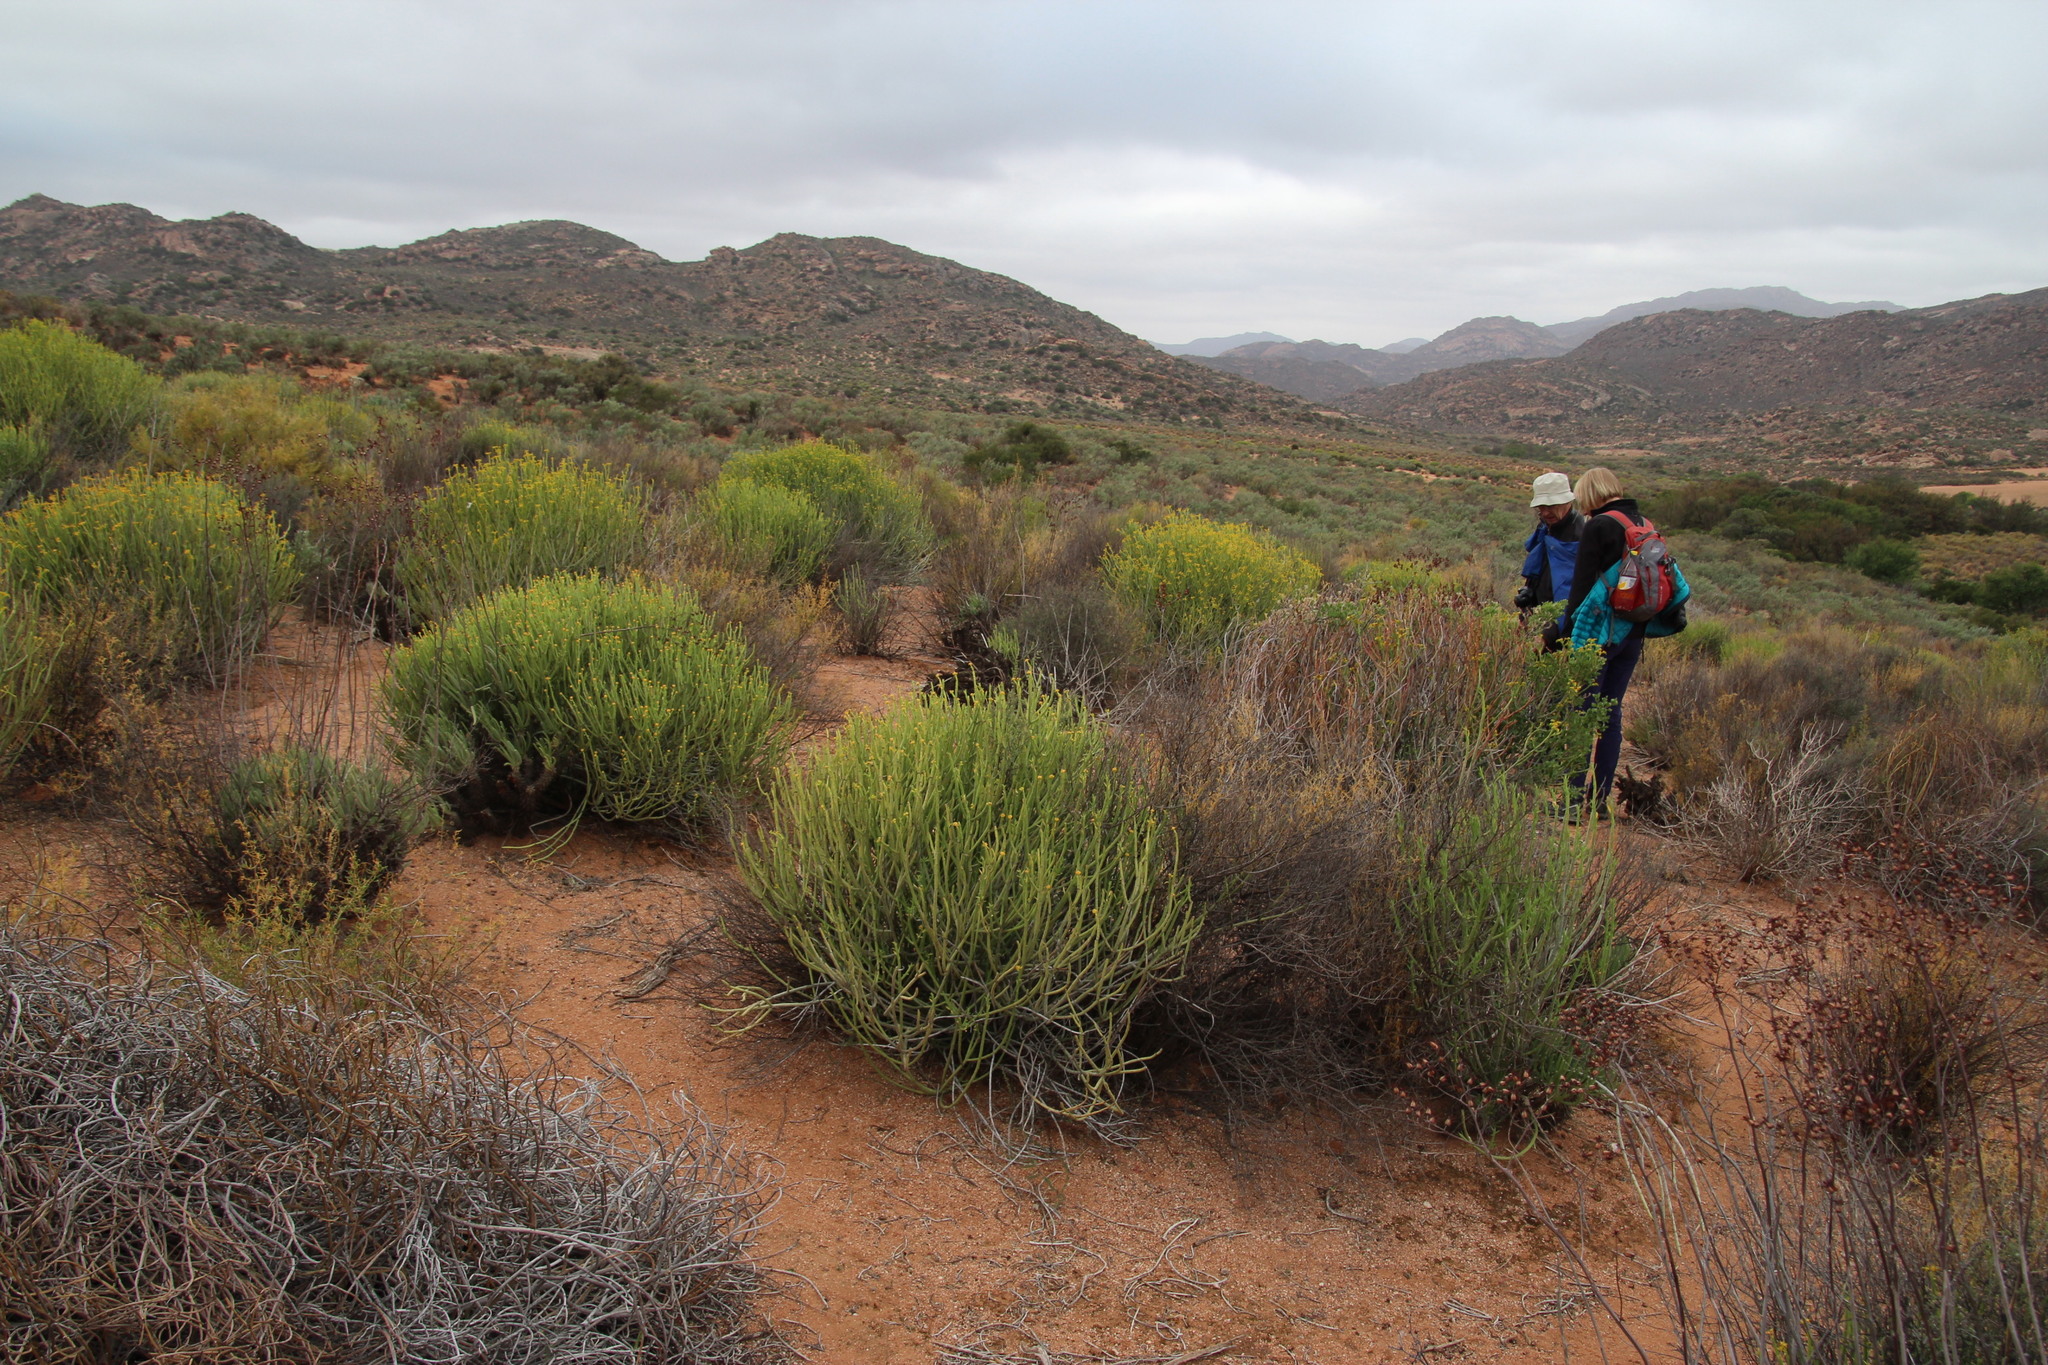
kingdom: Plantae
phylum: Tracheophyta
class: Magnoliopsida
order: Malpighiales
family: Euphorbiaceae
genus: Euphorbia
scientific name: Euphorbia mauritanica
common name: Jackal's-food
